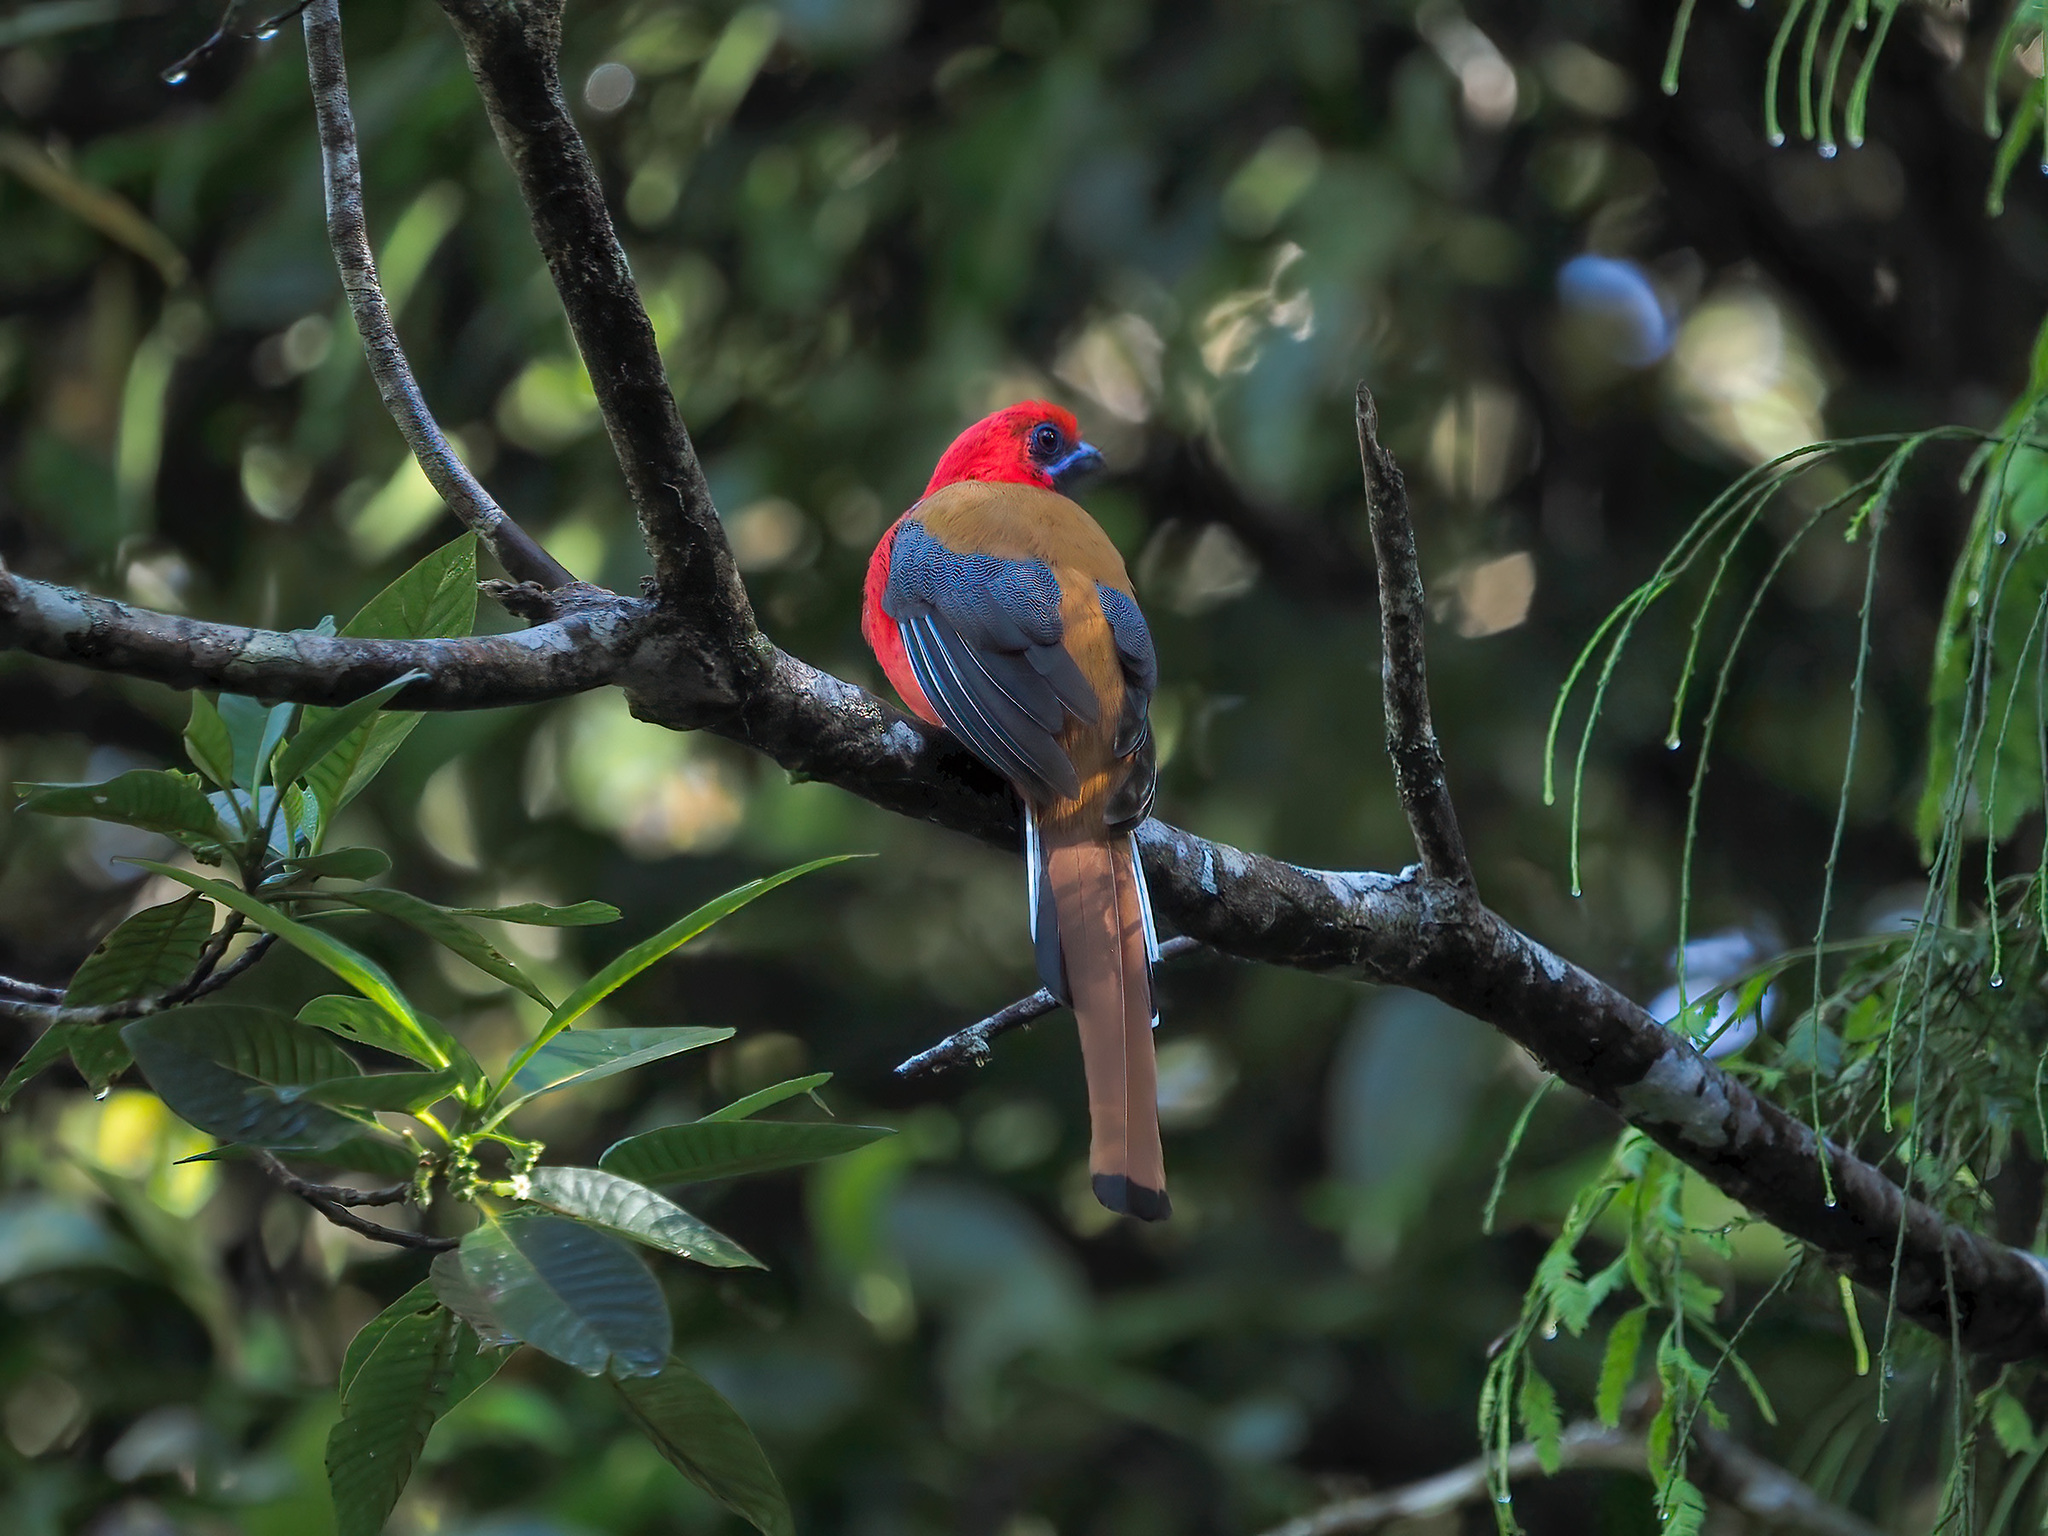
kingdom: Animalia
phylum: Chordata
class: Aves
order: Trogoniformes
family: Trogonidae
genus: Harpactes
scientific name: Harpactes whiteheadi
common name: Whitehead's trogon
